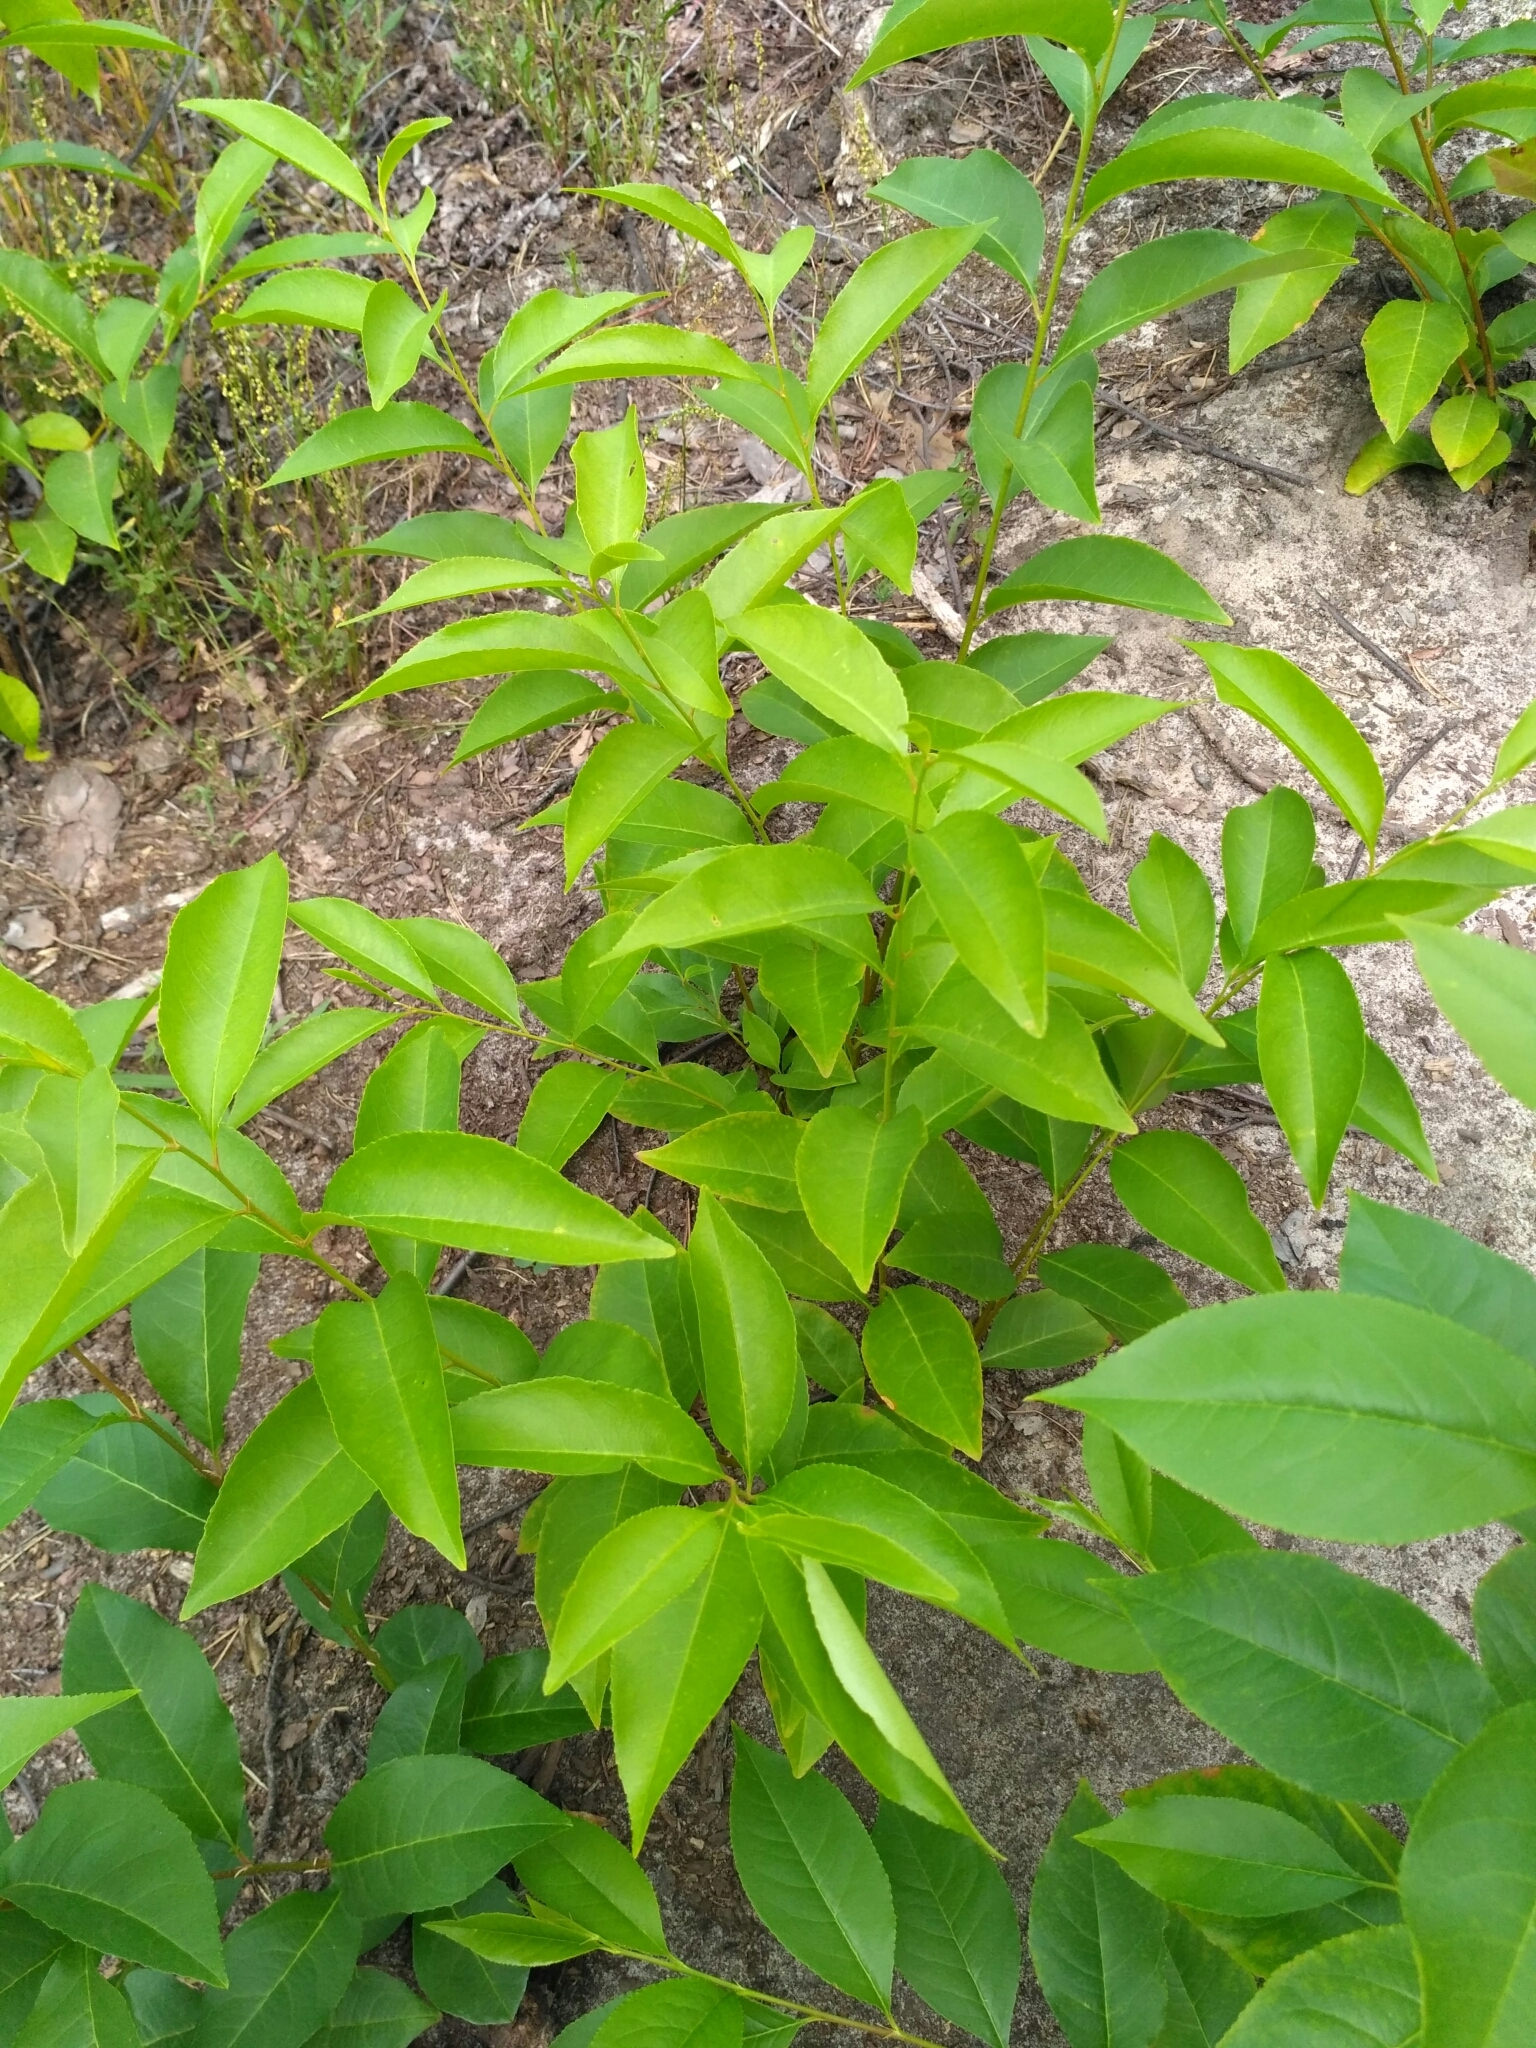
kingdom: Plantae
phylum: Tracheophyta
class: Magnoliopsida
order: Rosales
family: Rosaceae
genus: Prunus
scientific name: Prunus serotina
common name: Black cherry
